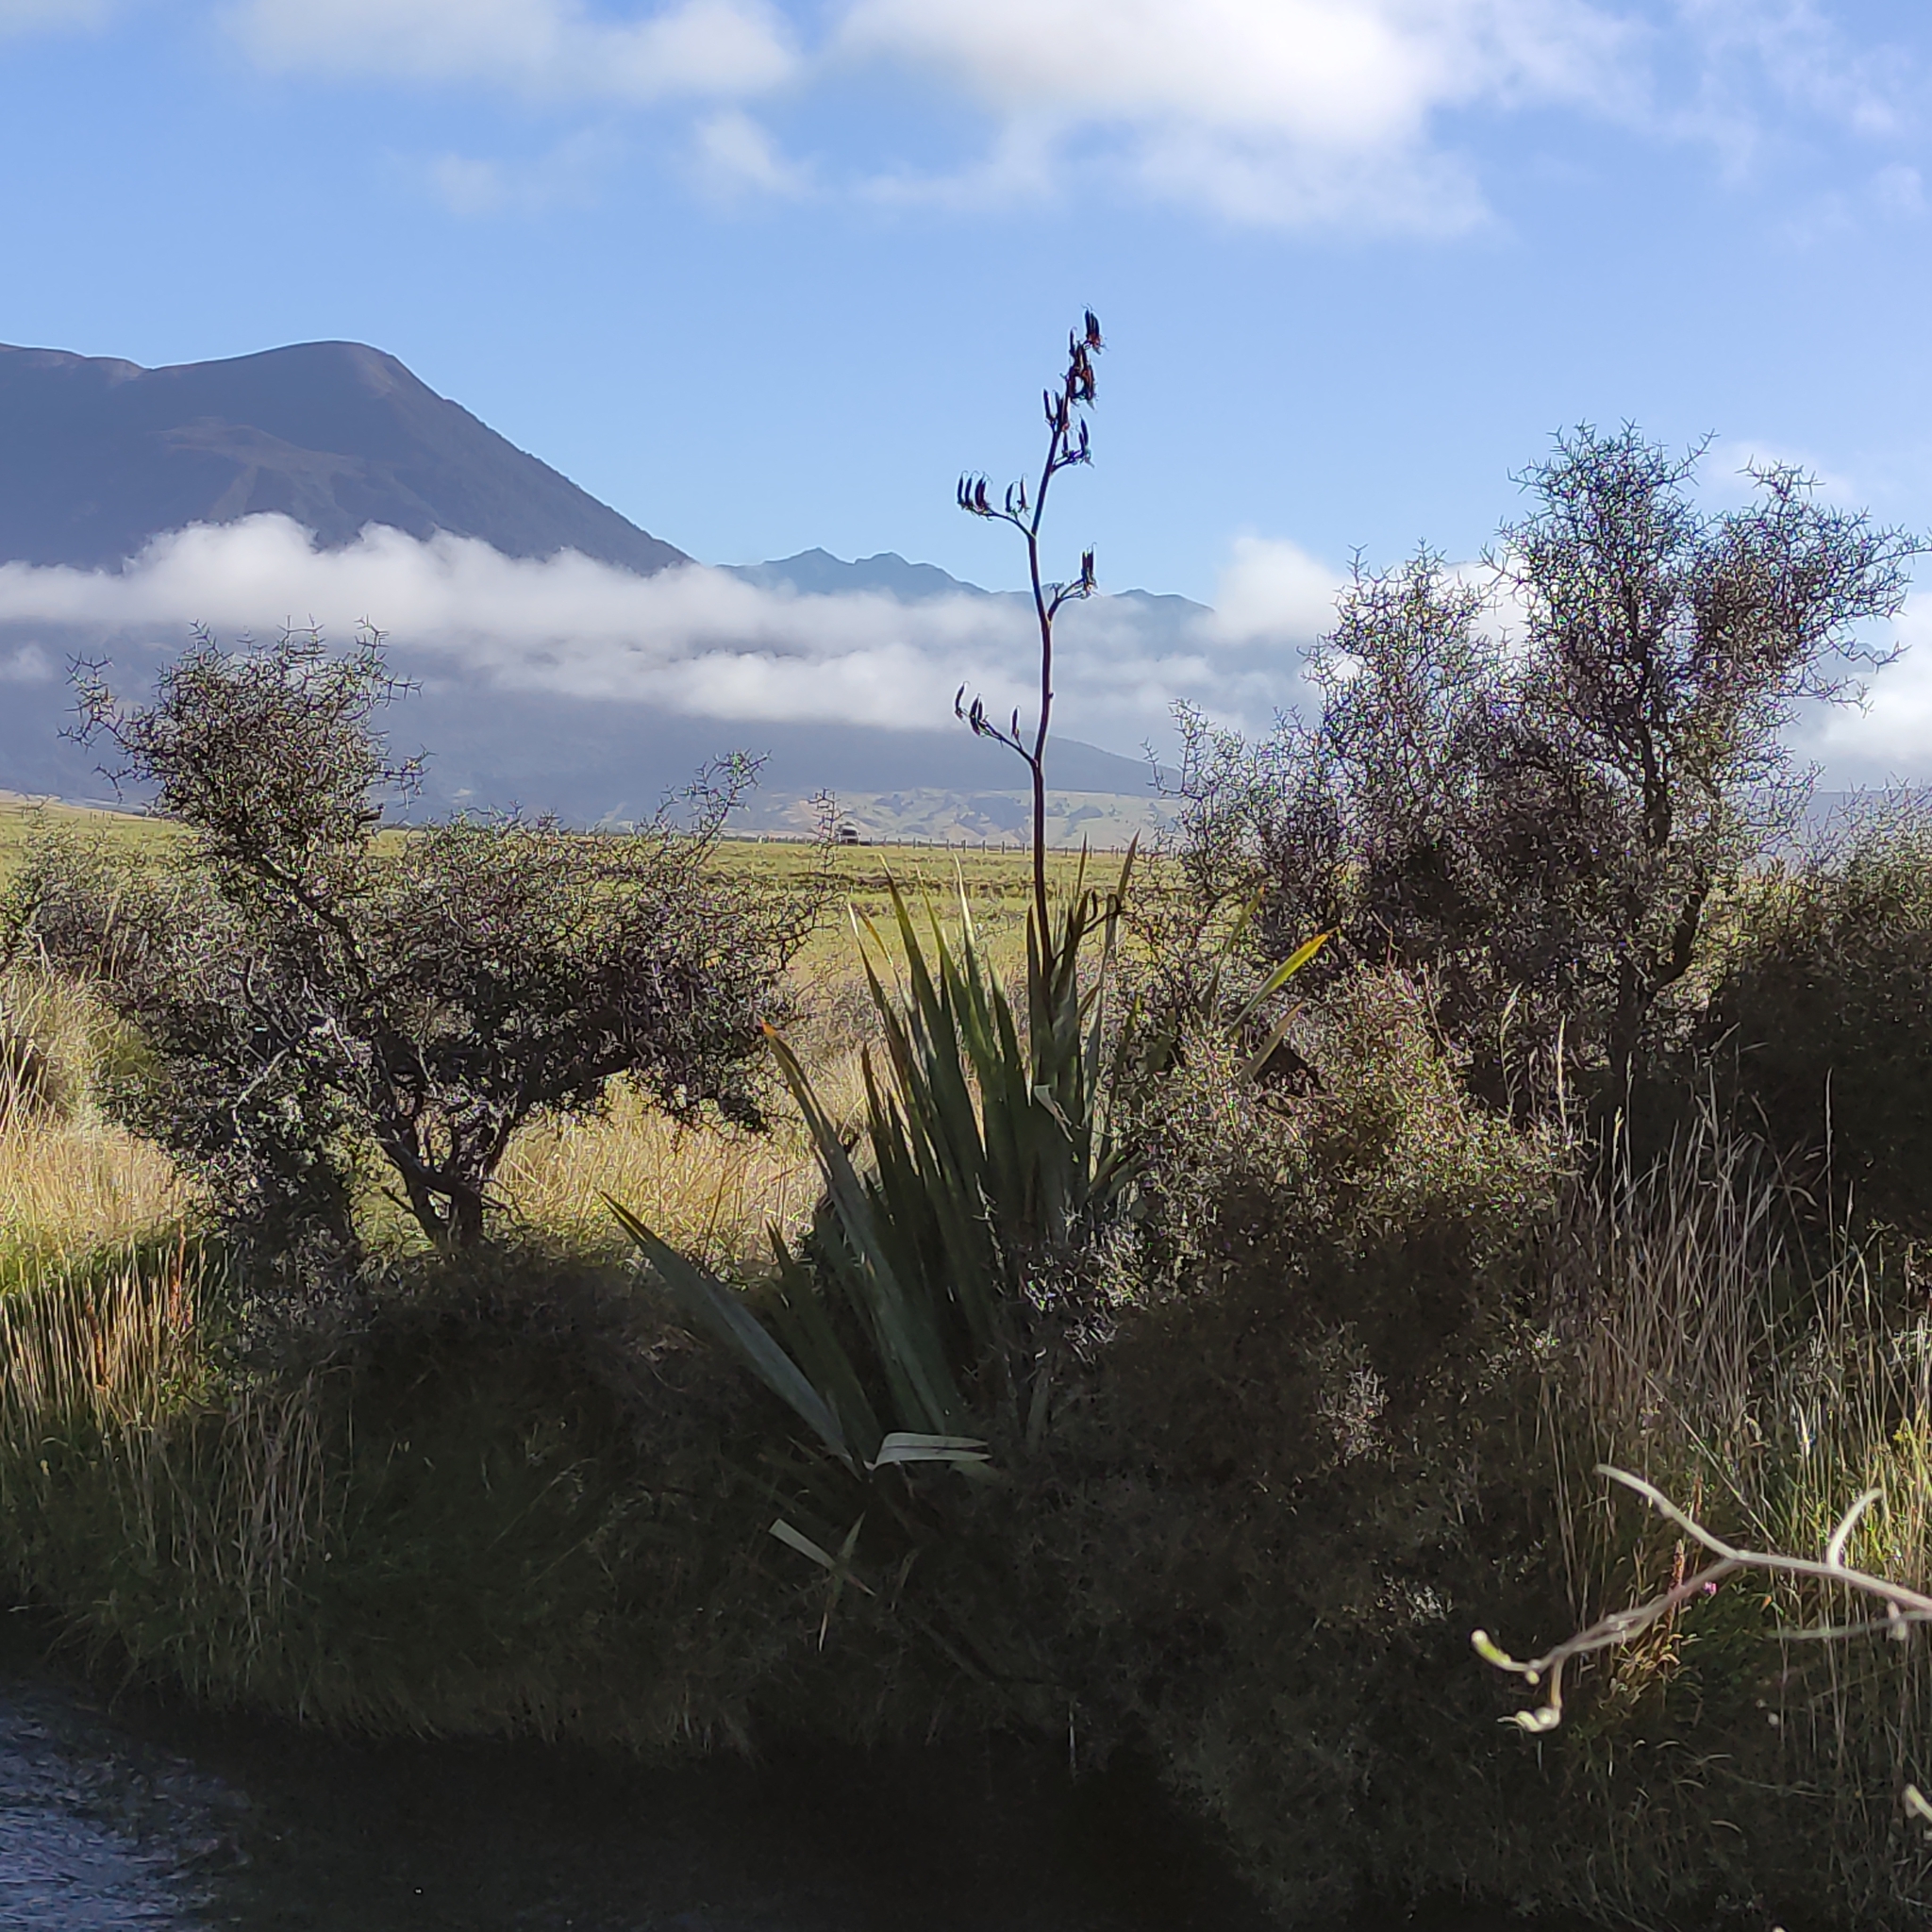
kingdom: Plantae
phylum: Tracheophyta
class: Liliopsida
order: Asparagales
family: Asphodelaceae
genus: Phormium
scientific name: Phormium tenax
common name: New zealand flax
